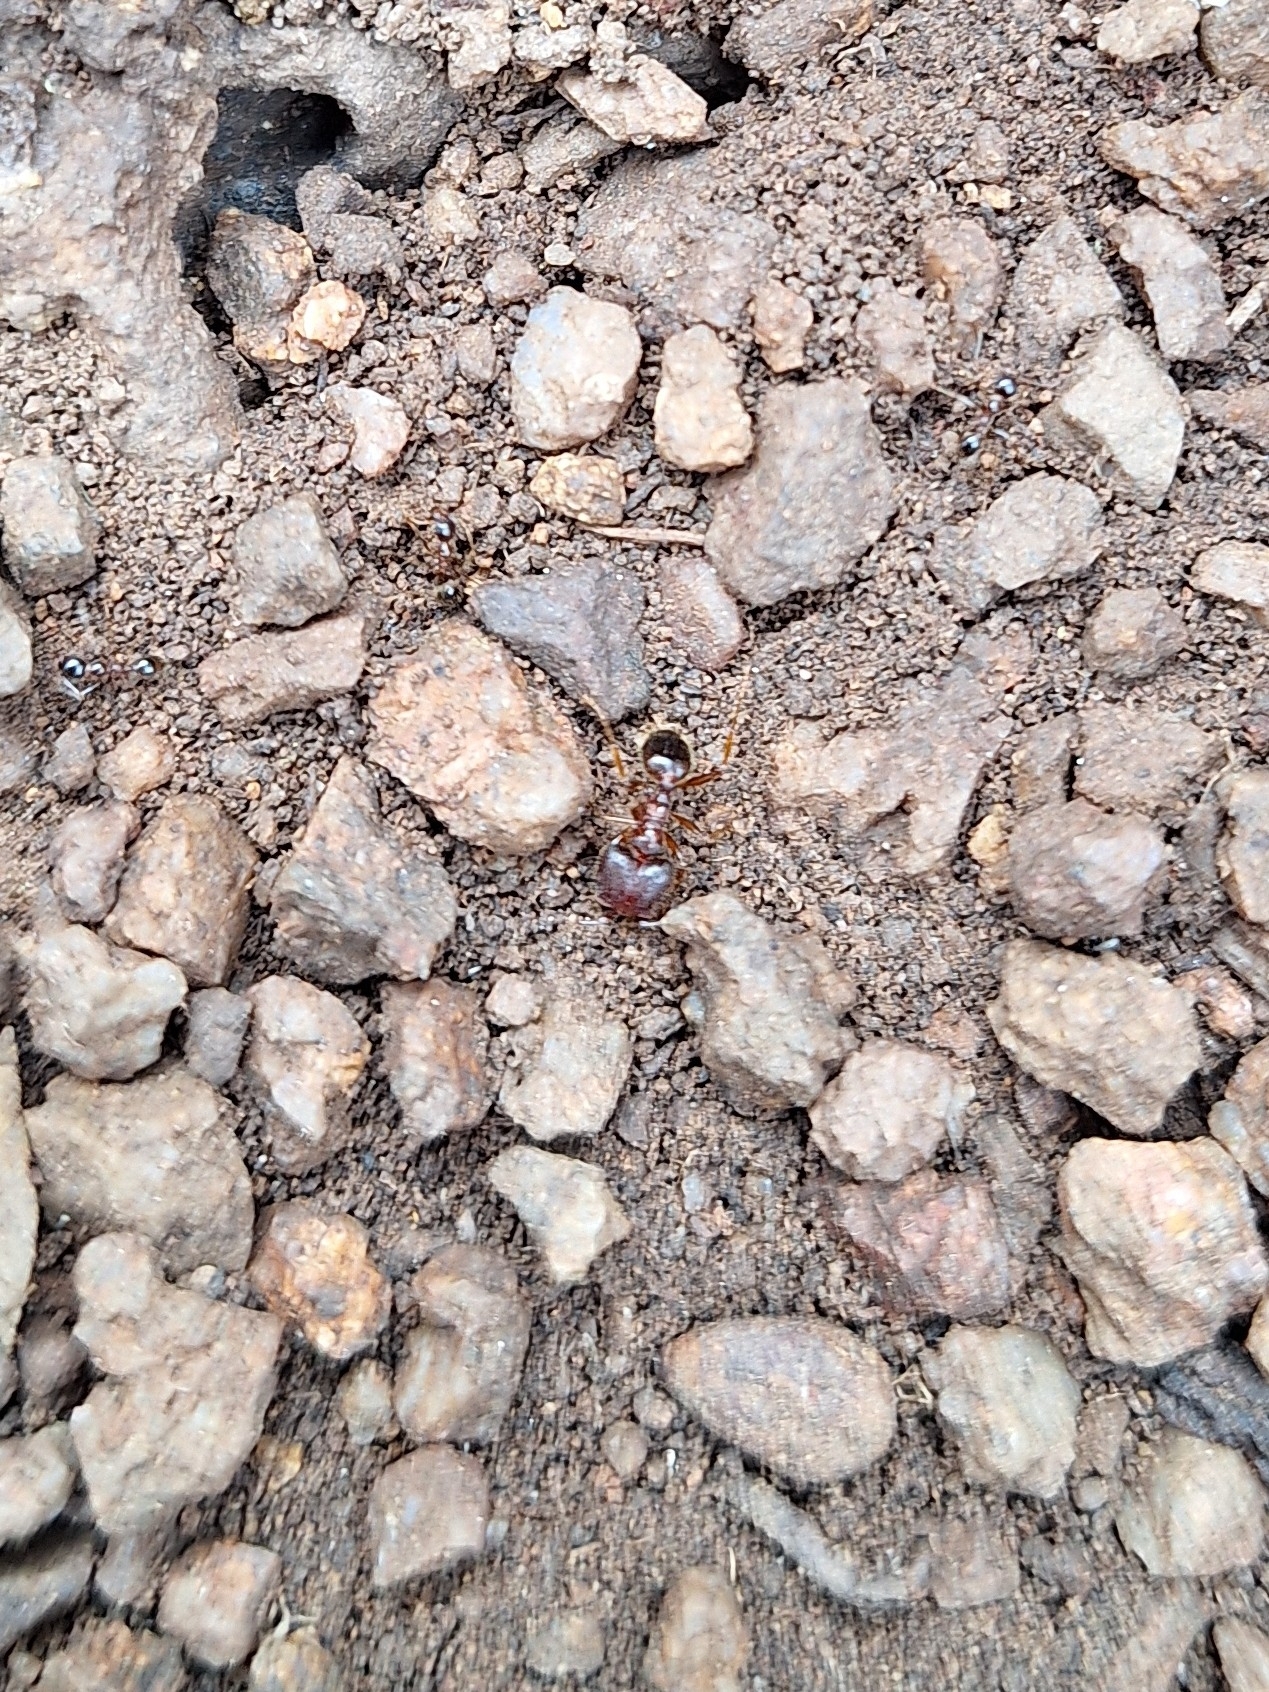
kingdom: Animalia
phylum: Arthropoda
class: Insecta
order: Hymenoptera
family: Formicidae
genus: Pheidole
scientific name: Pheidole obtusospinosa
